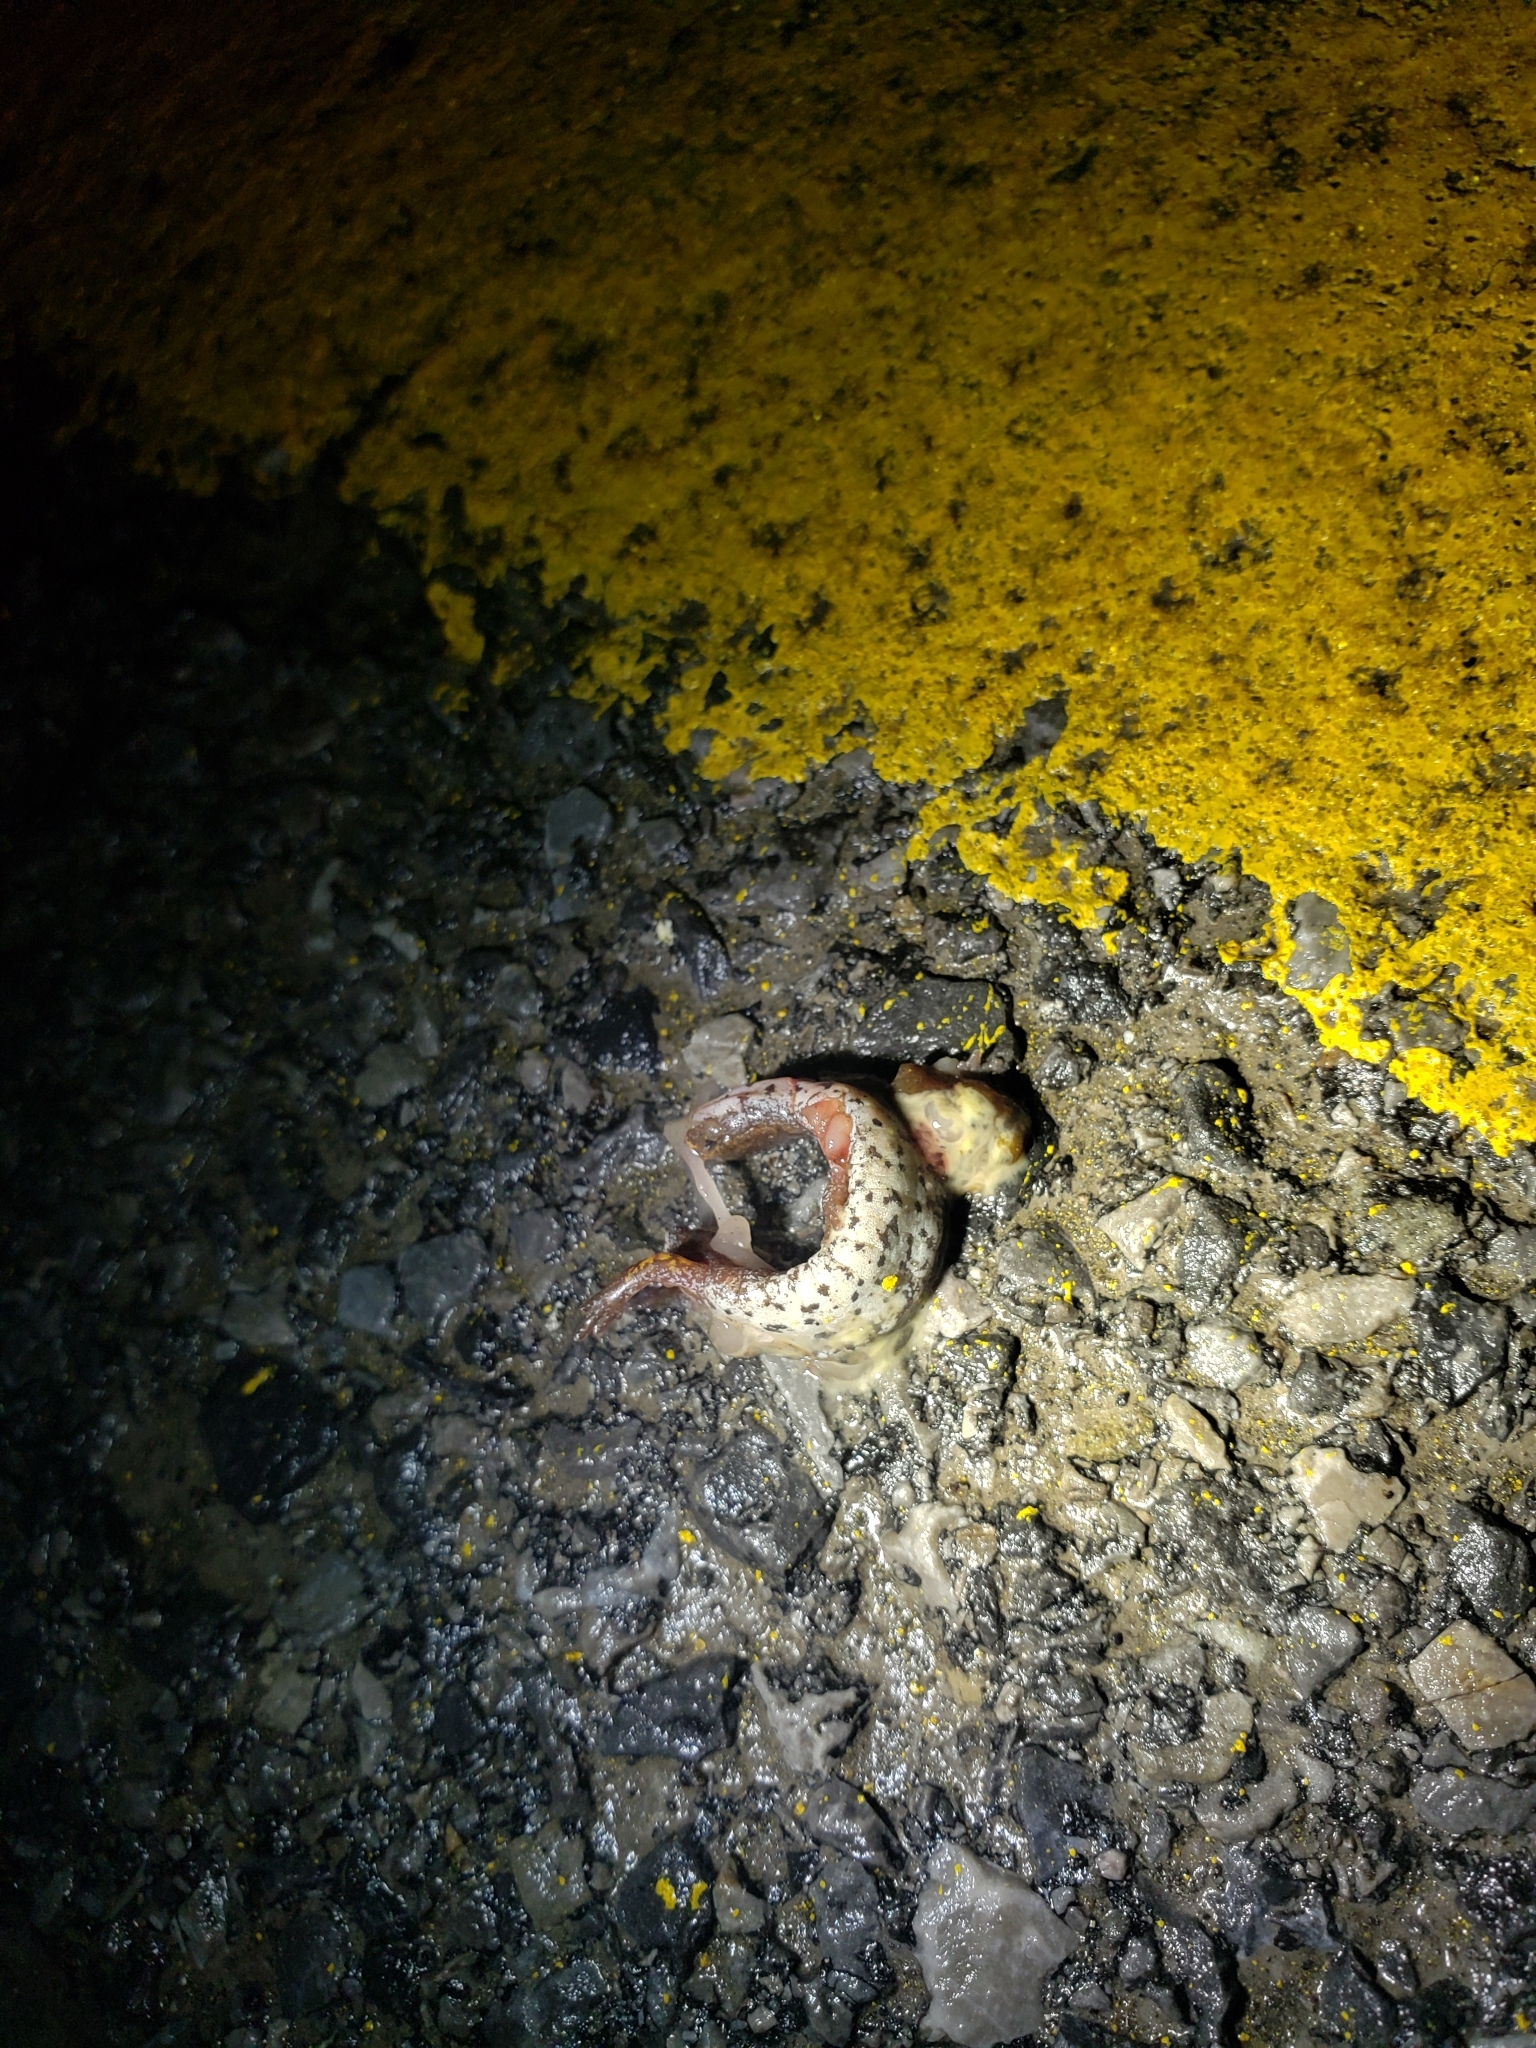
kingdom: Animalia
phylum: Chordata
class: Amphibia
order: Caudata
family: Plethodontidae
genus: Hemidactylium
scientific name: Hemidactylium scutatum
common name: Four-toed salamander
